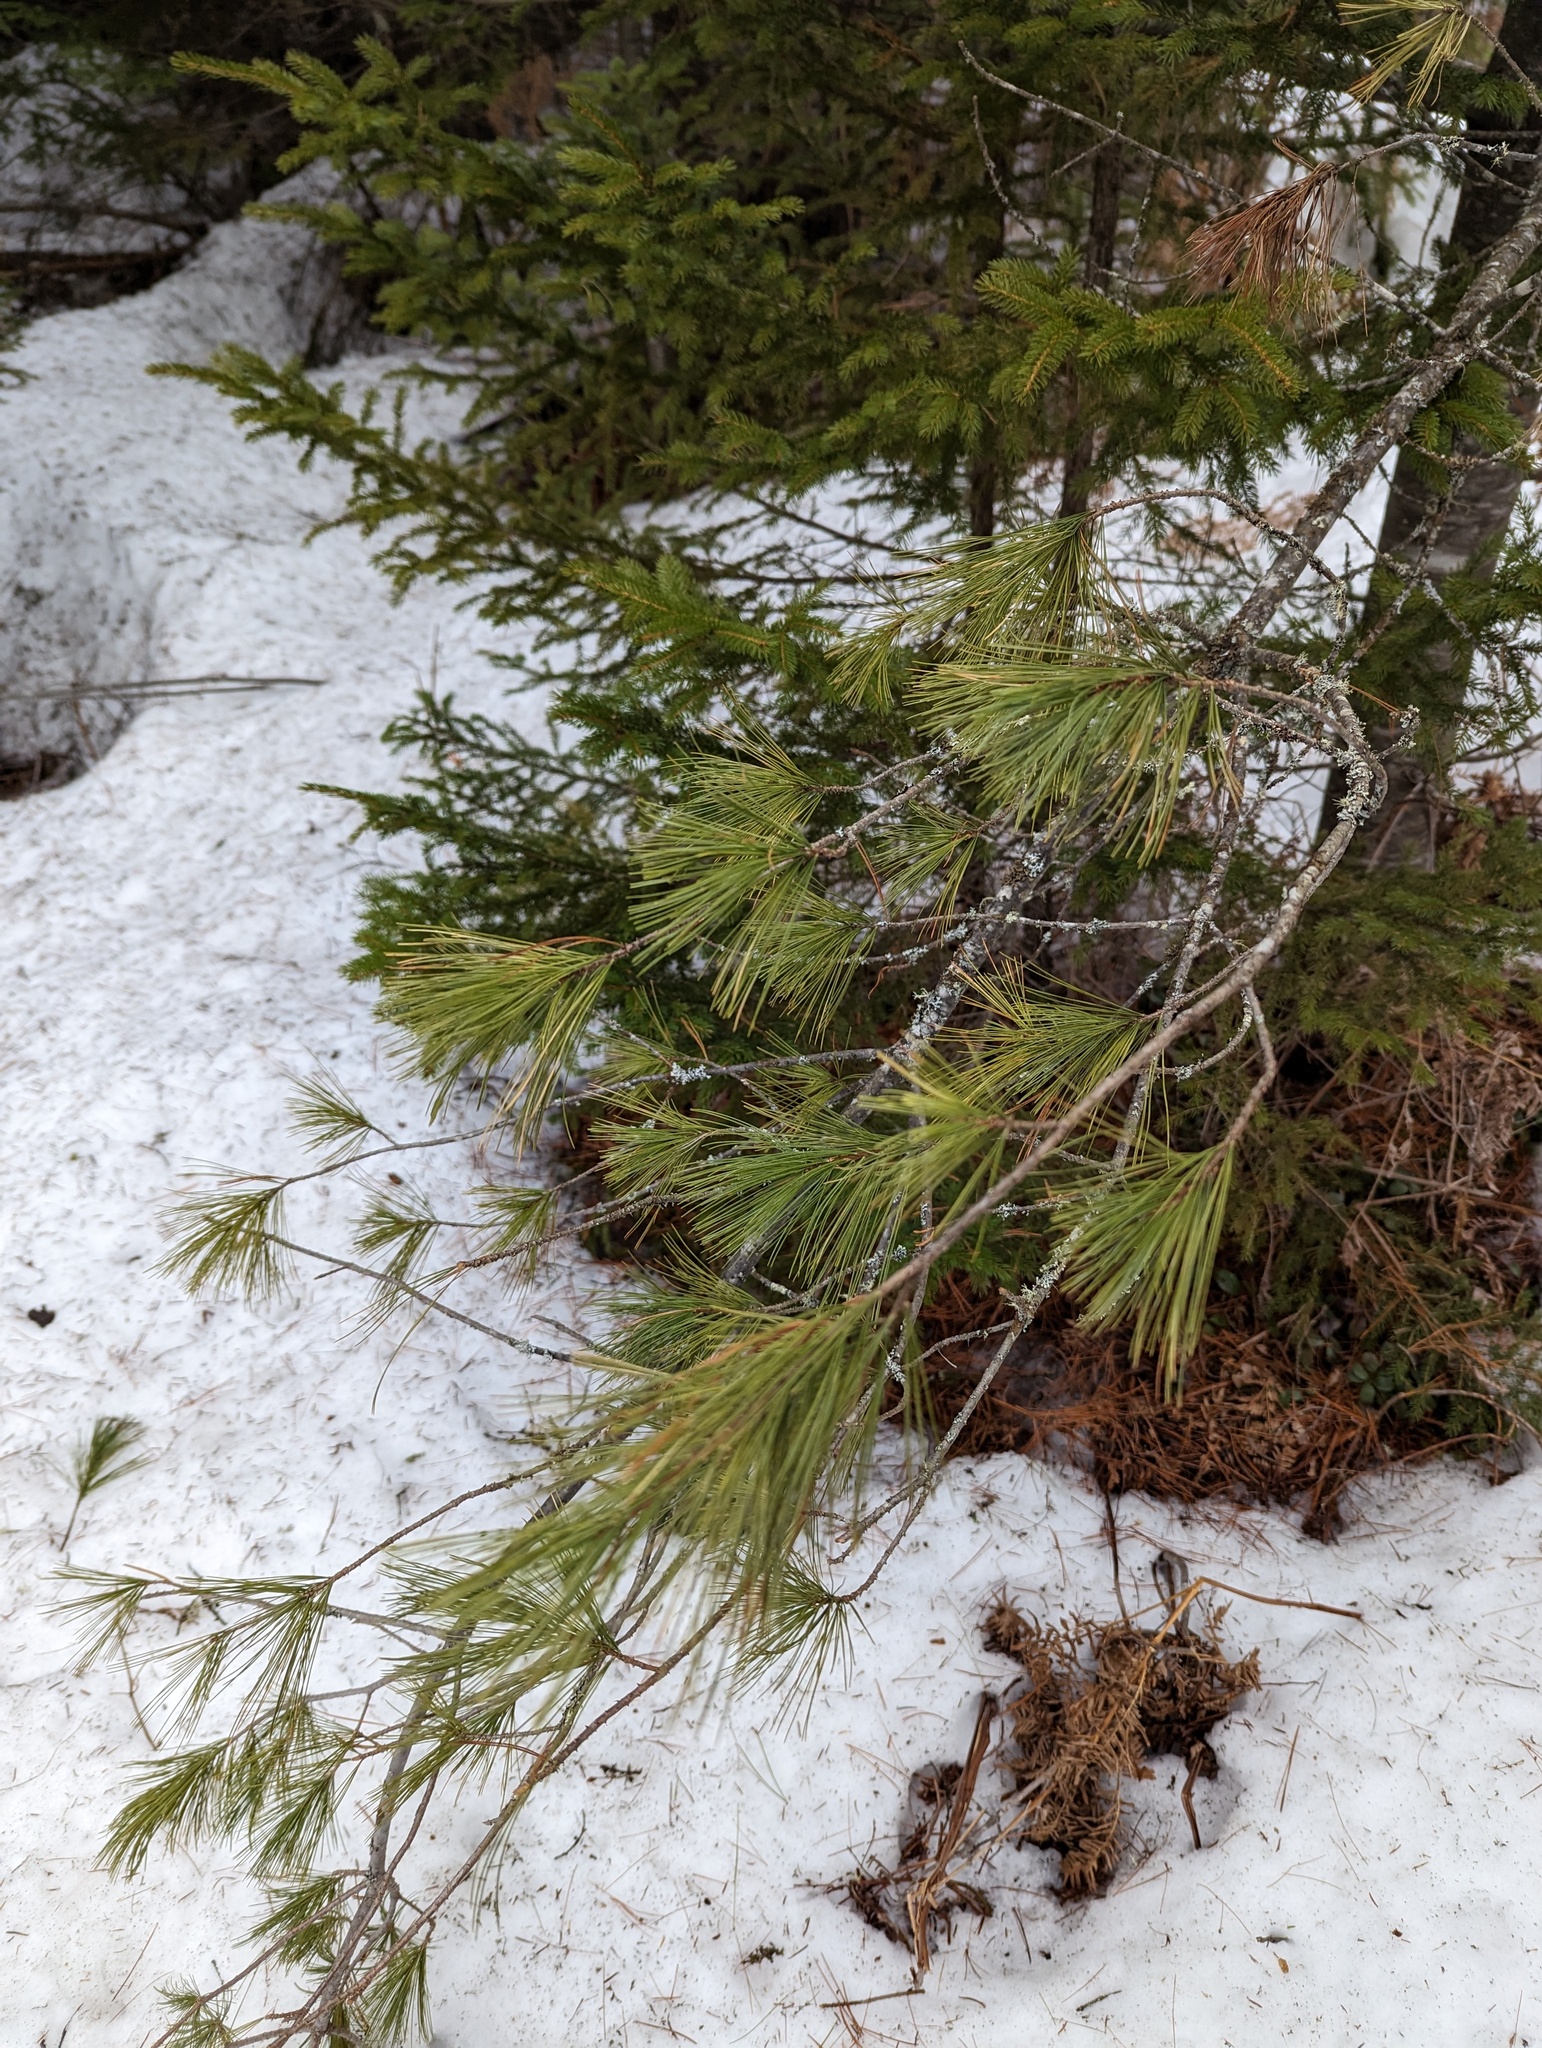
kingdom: Plantae
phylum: Tracheophyta
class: Pinopsida
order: Pinales
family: Pinaceae
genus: Pinus
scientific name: Pinus strobus
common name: Weymouth pine
